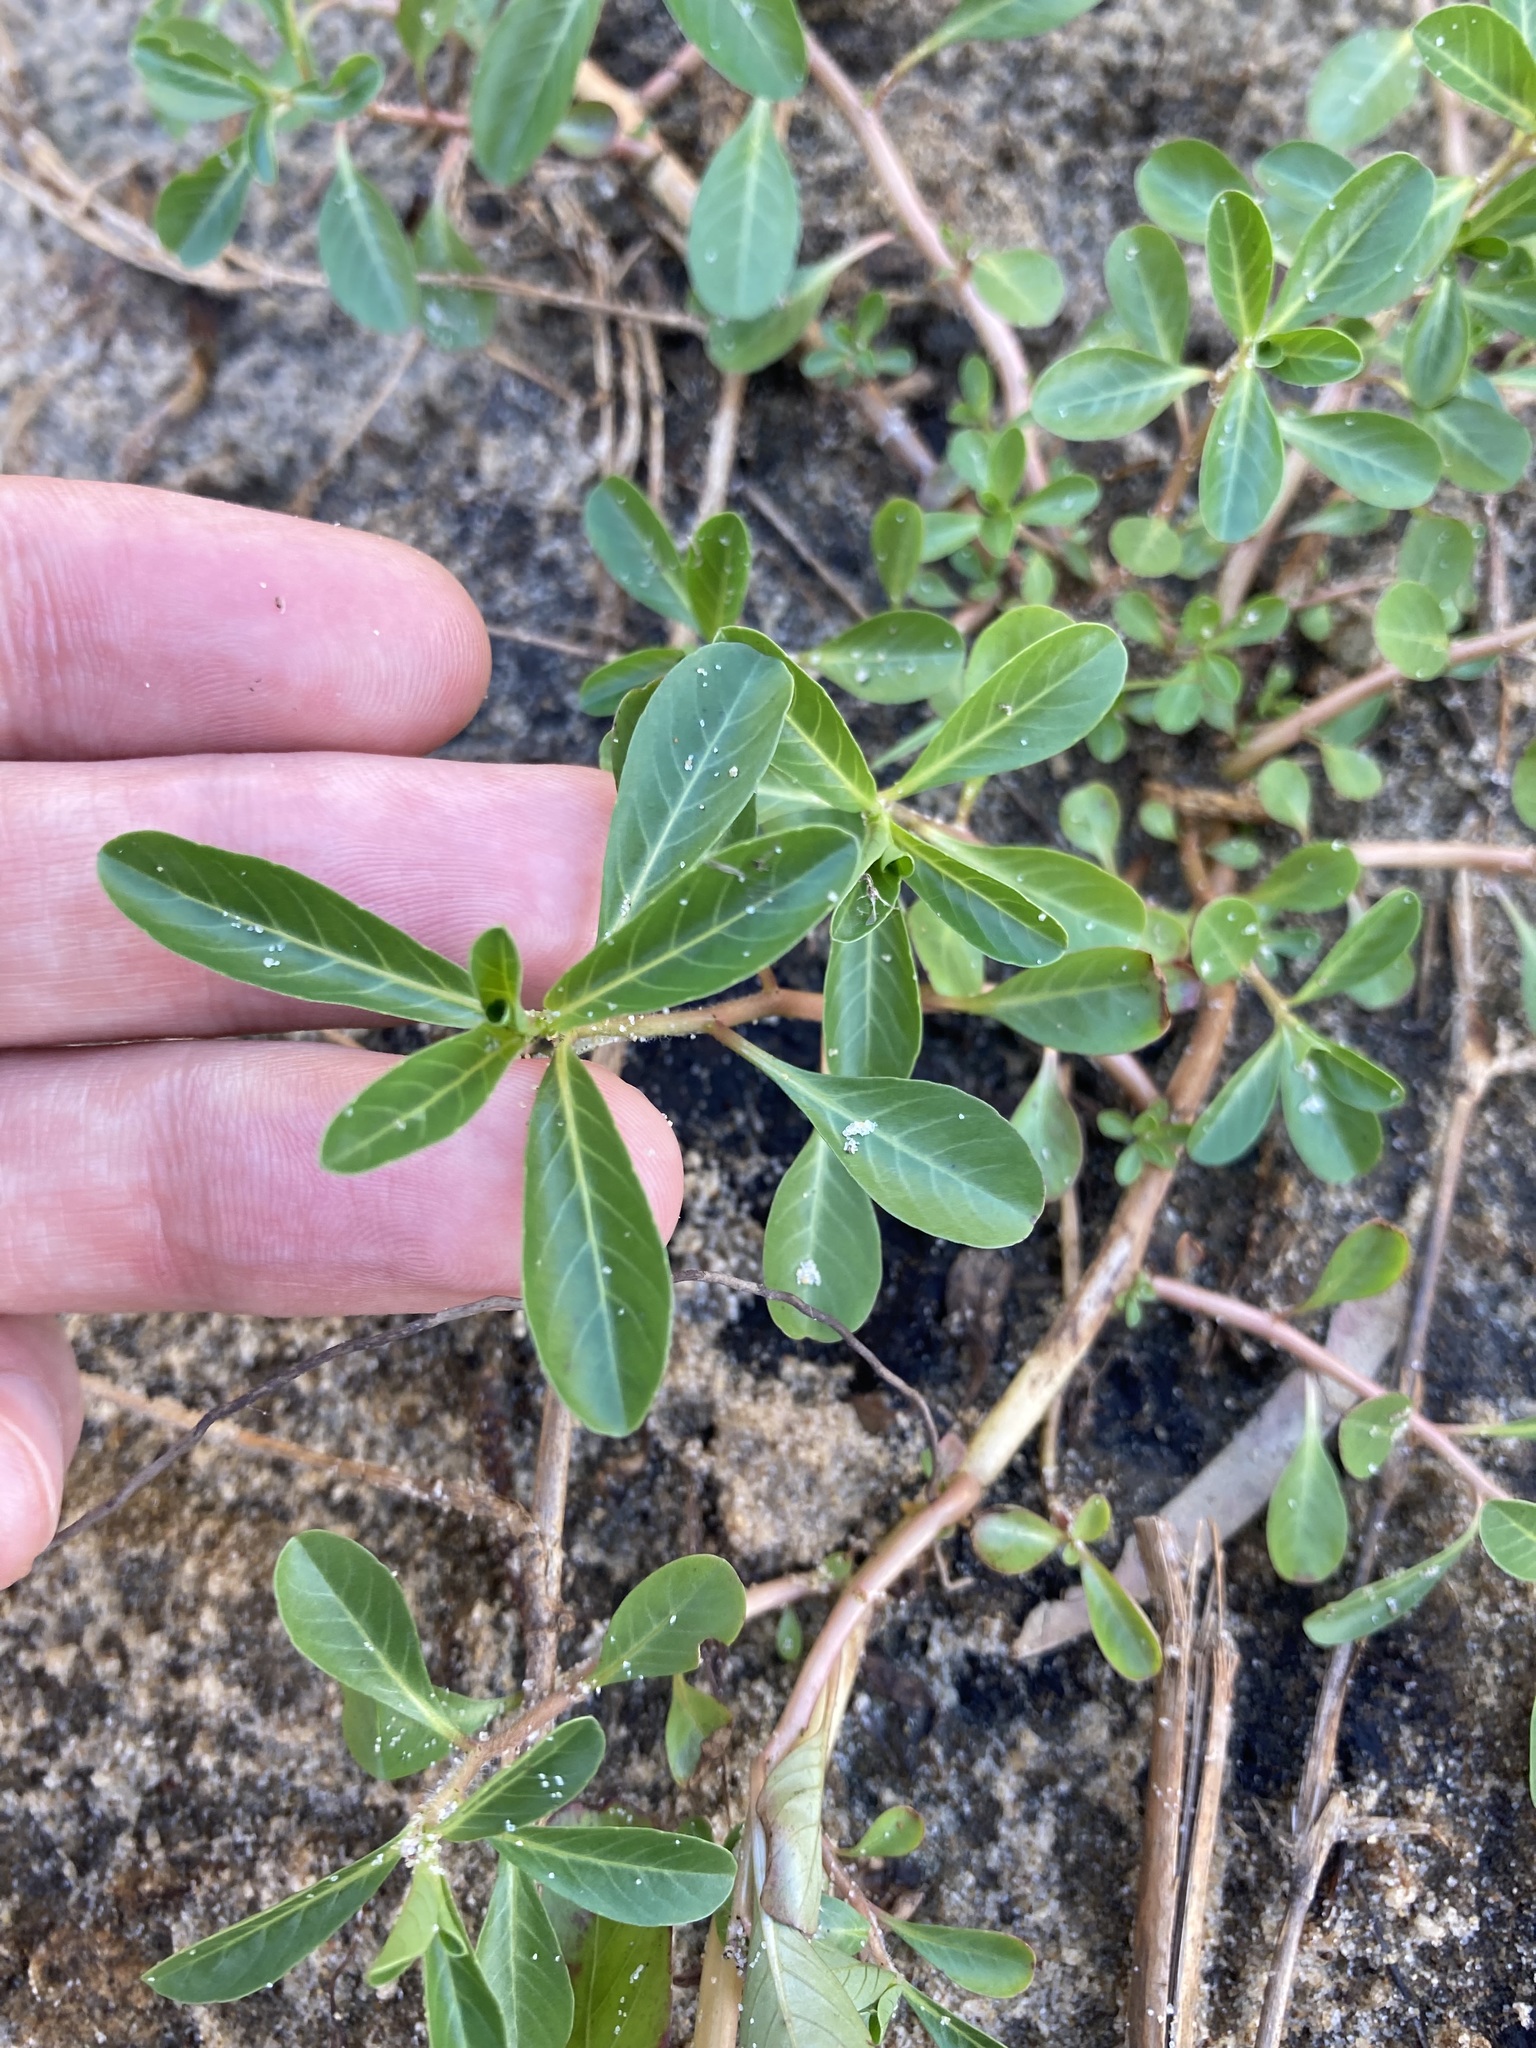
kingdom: Plantae
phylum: Tracheophyta
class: Magnoliopsida
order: Myrtales
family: Onagraceae
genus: Ludwigia
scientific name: Ludwigia peploides
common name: Floating primrose-willow
